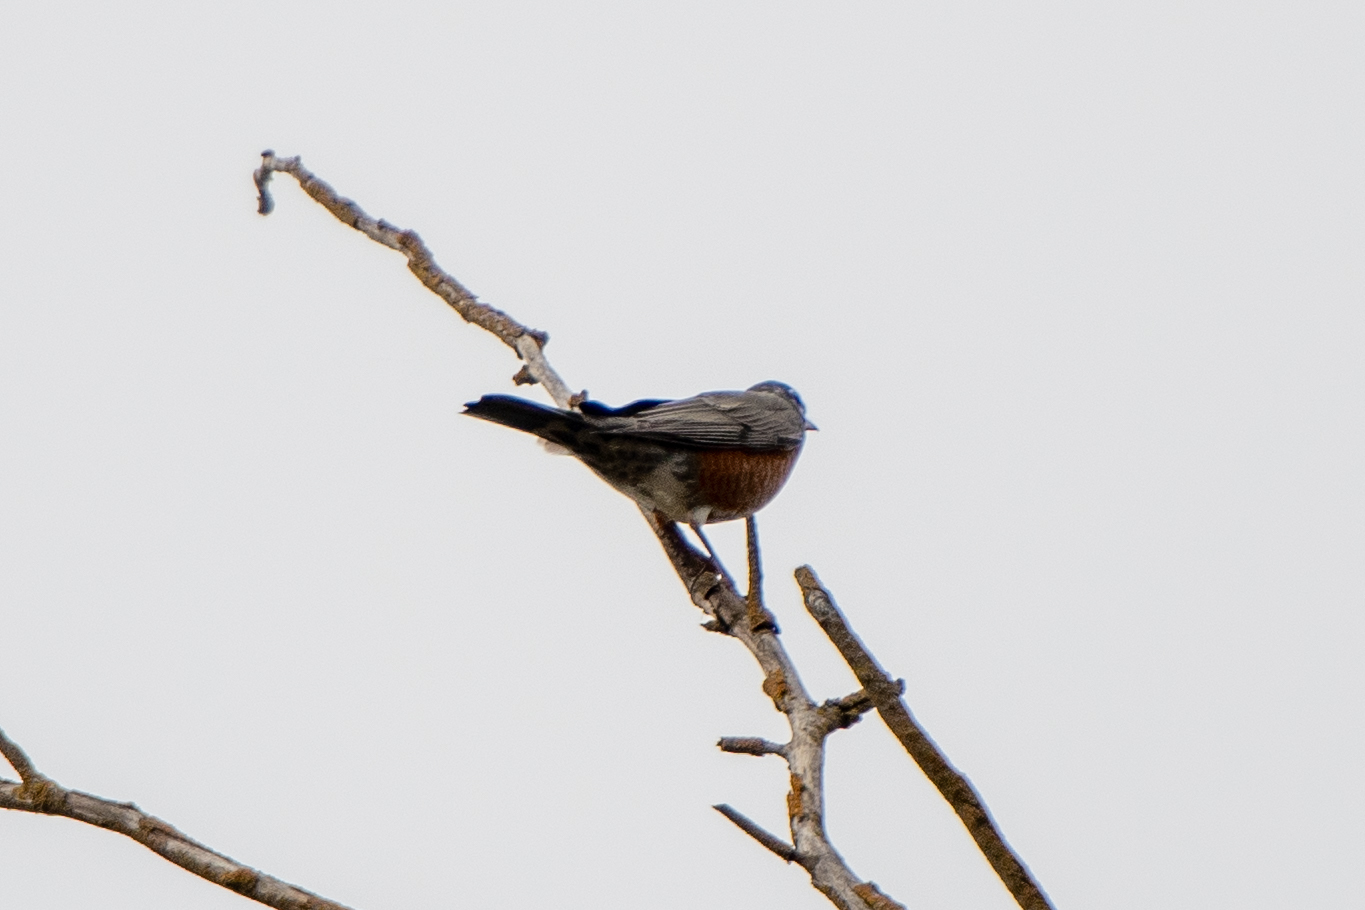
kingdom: Animalia
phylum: Chordata
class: Aves
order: Passeriformes
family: Turdidae
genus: Turdus
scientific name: Turdus migratorius
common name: American robin
